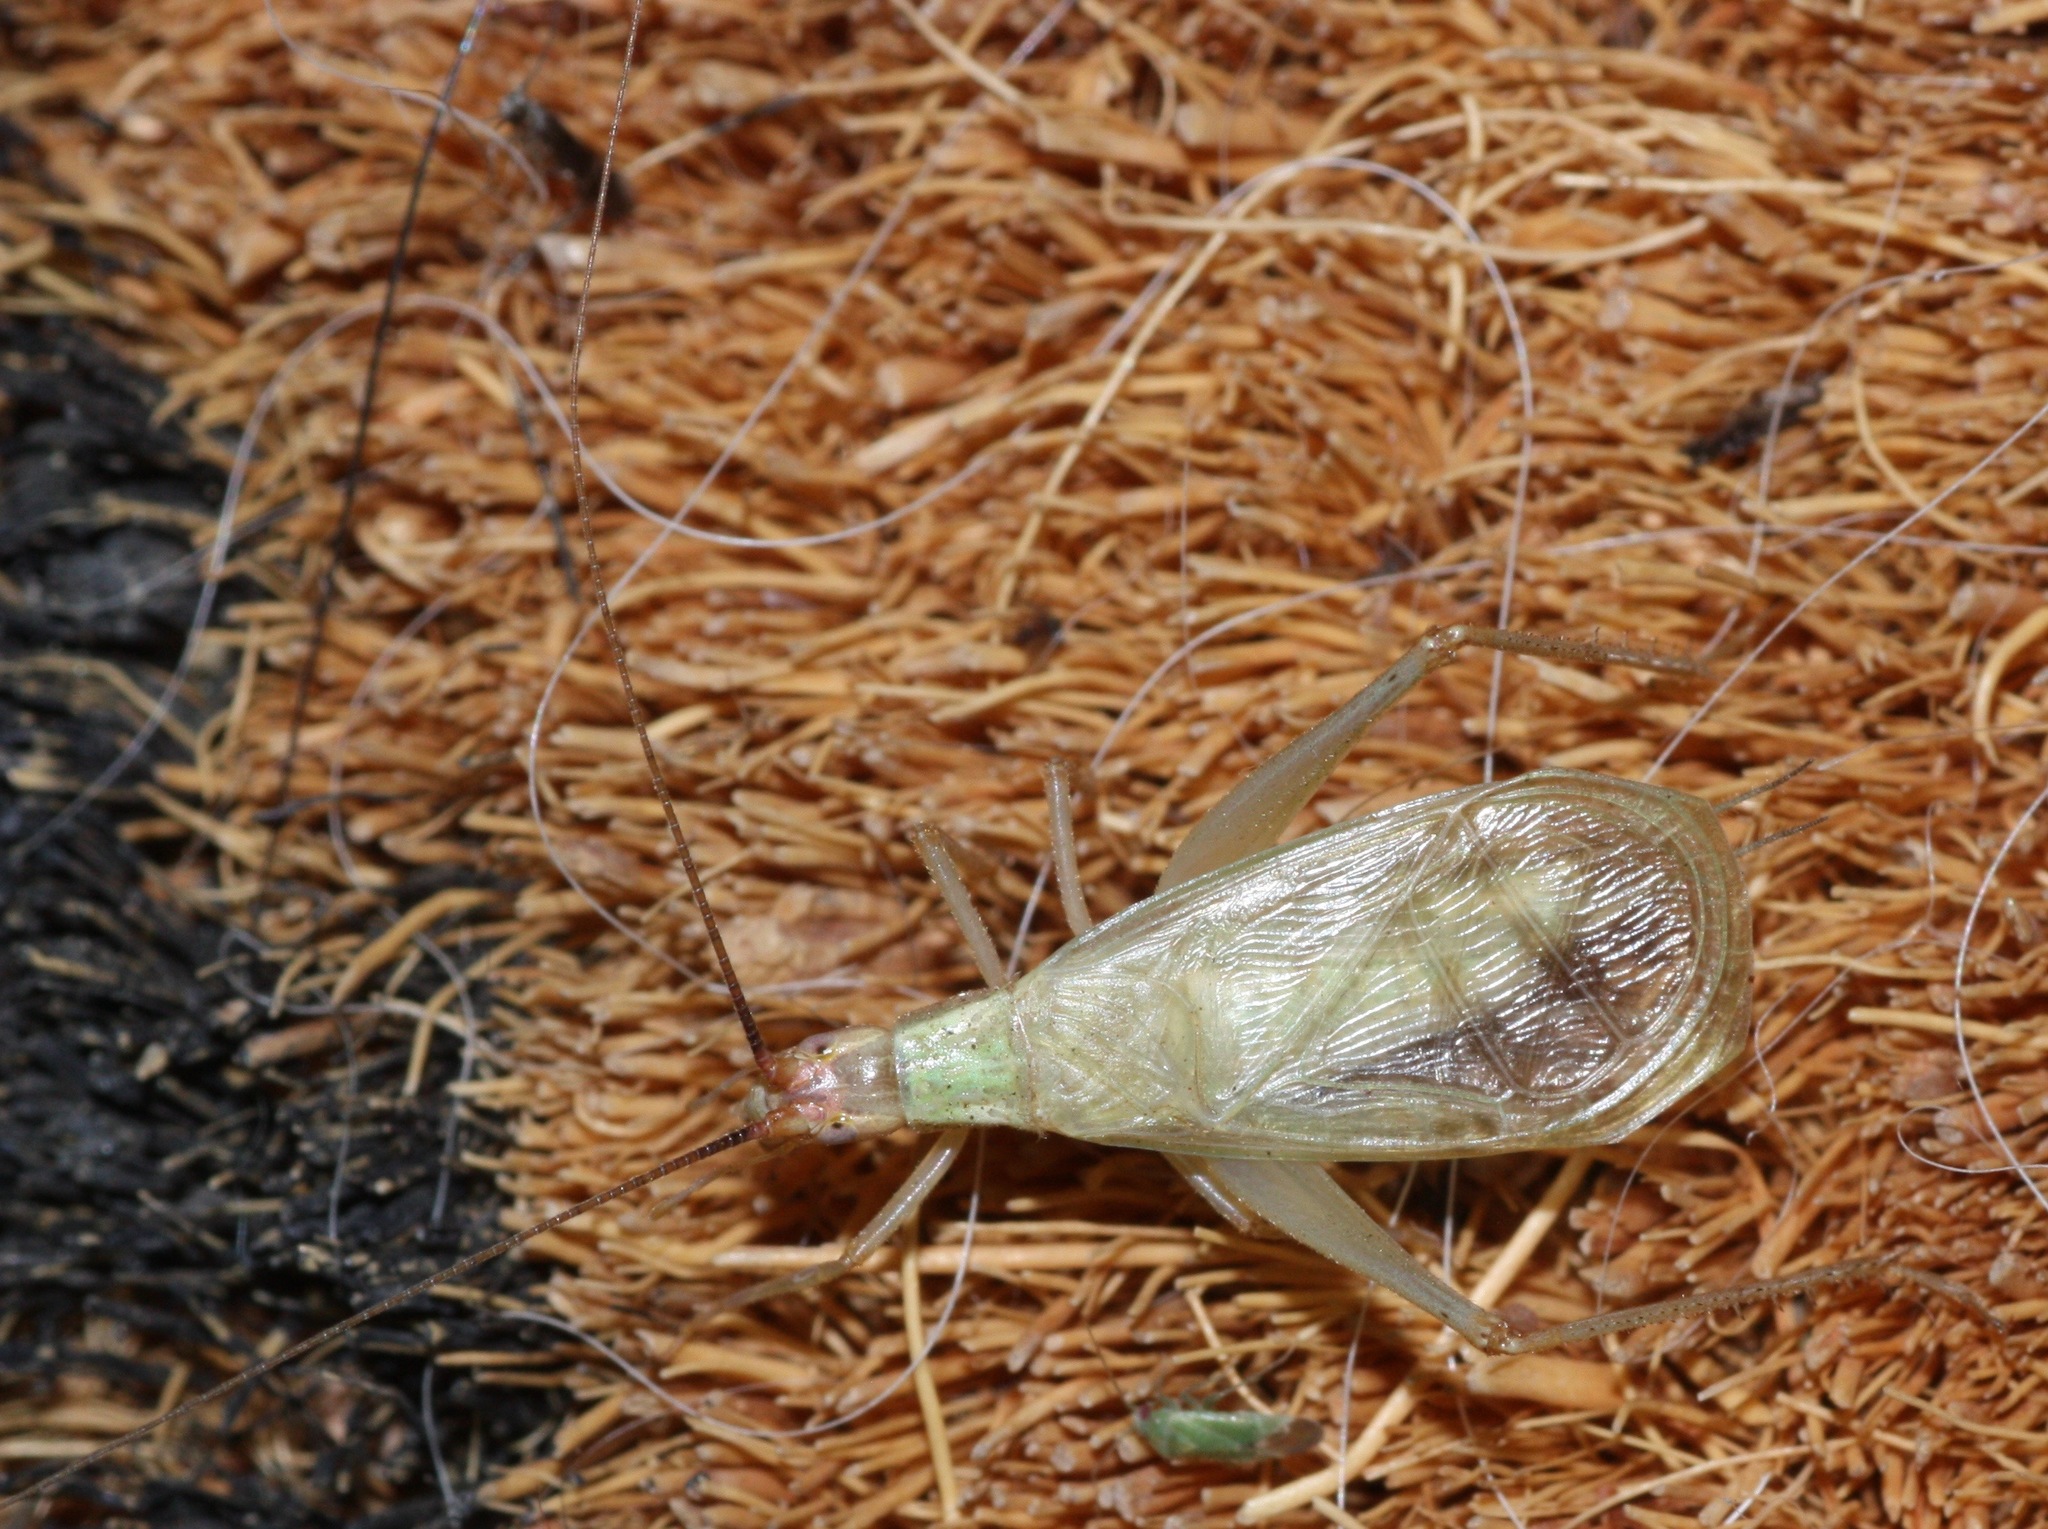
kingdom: Animalia
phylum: Arthropoda
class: Insecta
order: Orthoptera
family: Gryllidae
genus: Oecanthus
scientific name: Oecanthus
